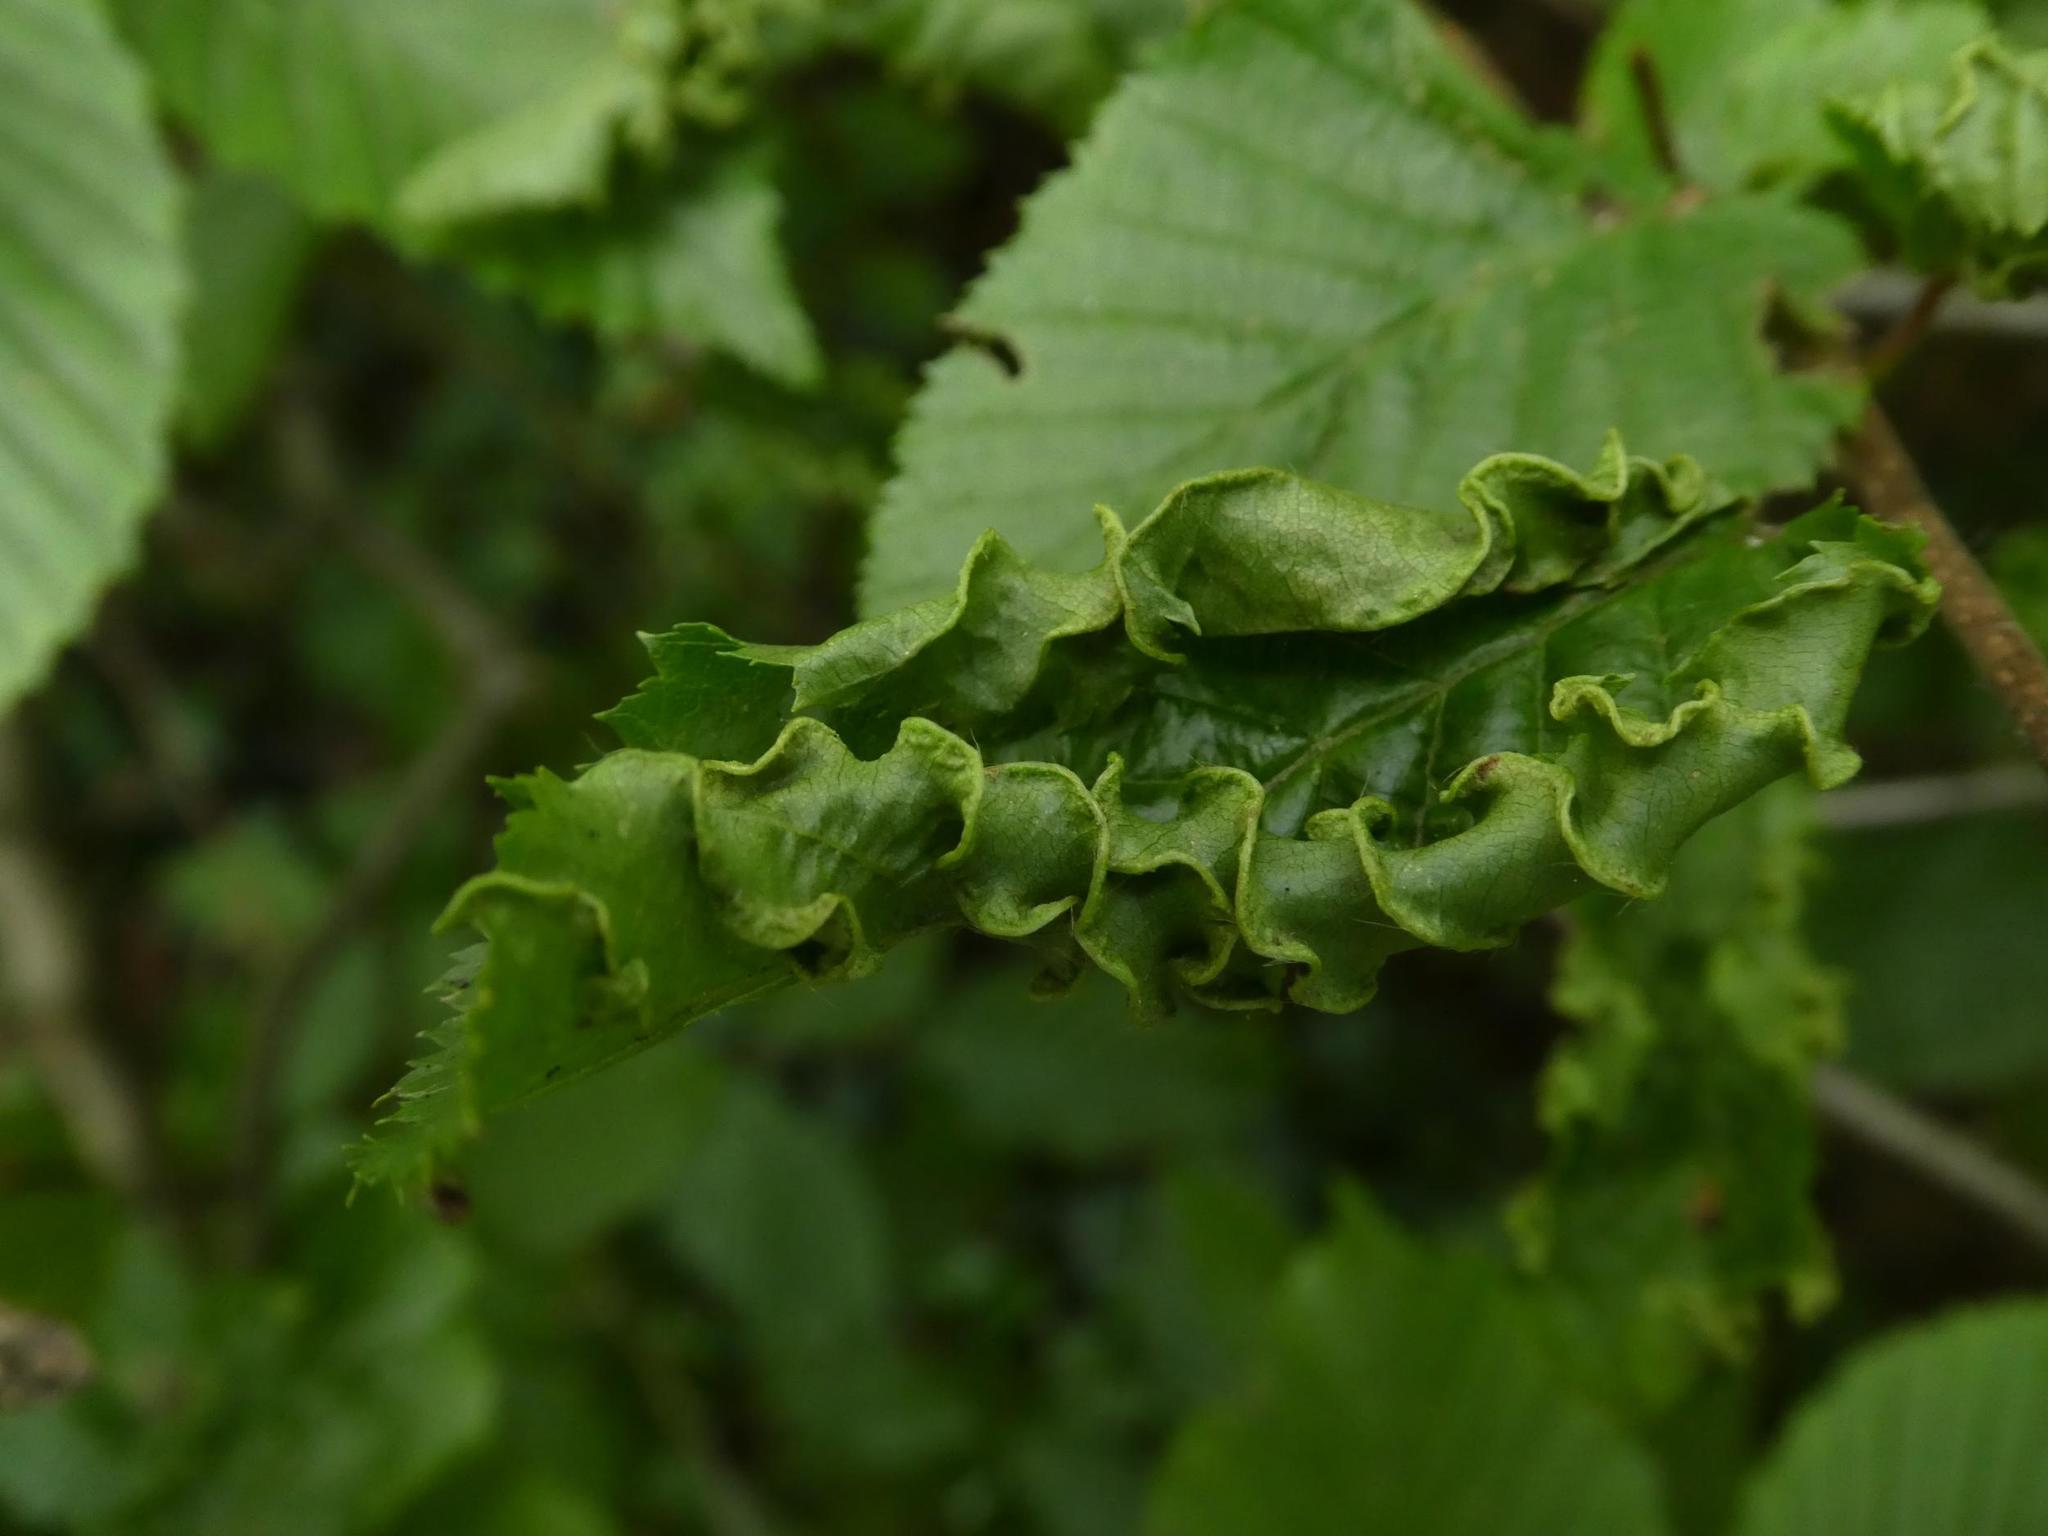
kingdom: Animalia
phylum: Arthropoda
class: Arachnida
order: Trombidiformes
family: Eriophyidae
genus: Aculops
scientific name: Aculops macrotrichus
